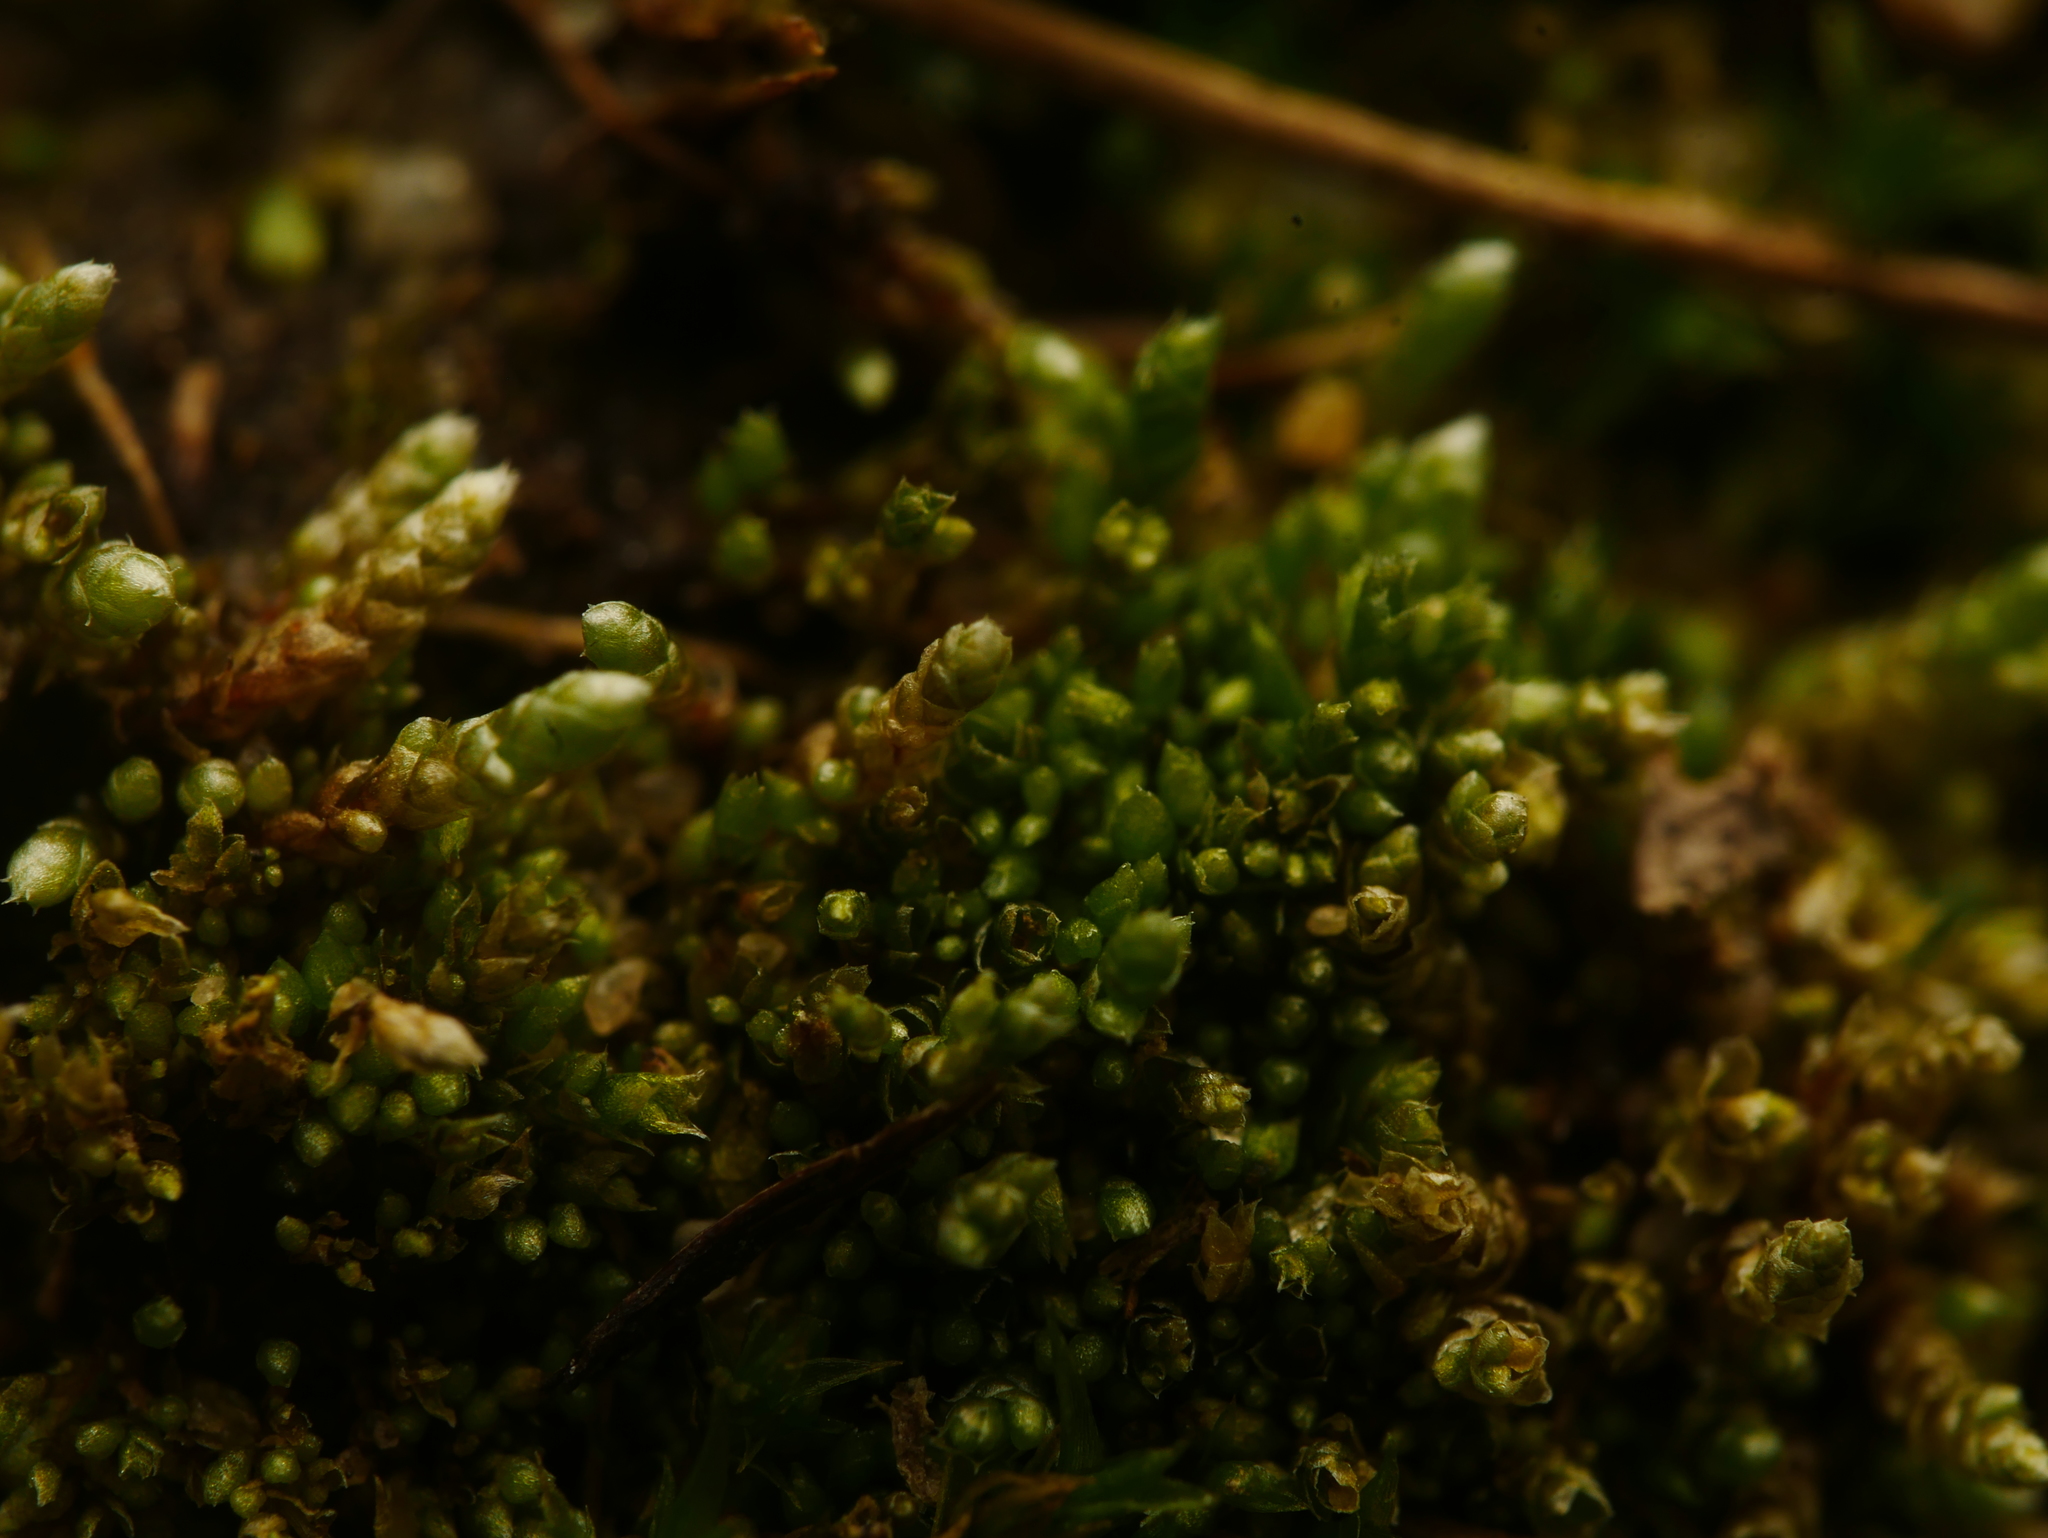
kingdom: Plantae
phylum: Bryophyta
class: Bryopsida
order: Bryales
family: Bryaceae
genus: Bryum
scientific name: Bryum argenteum
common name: Silver-moss
